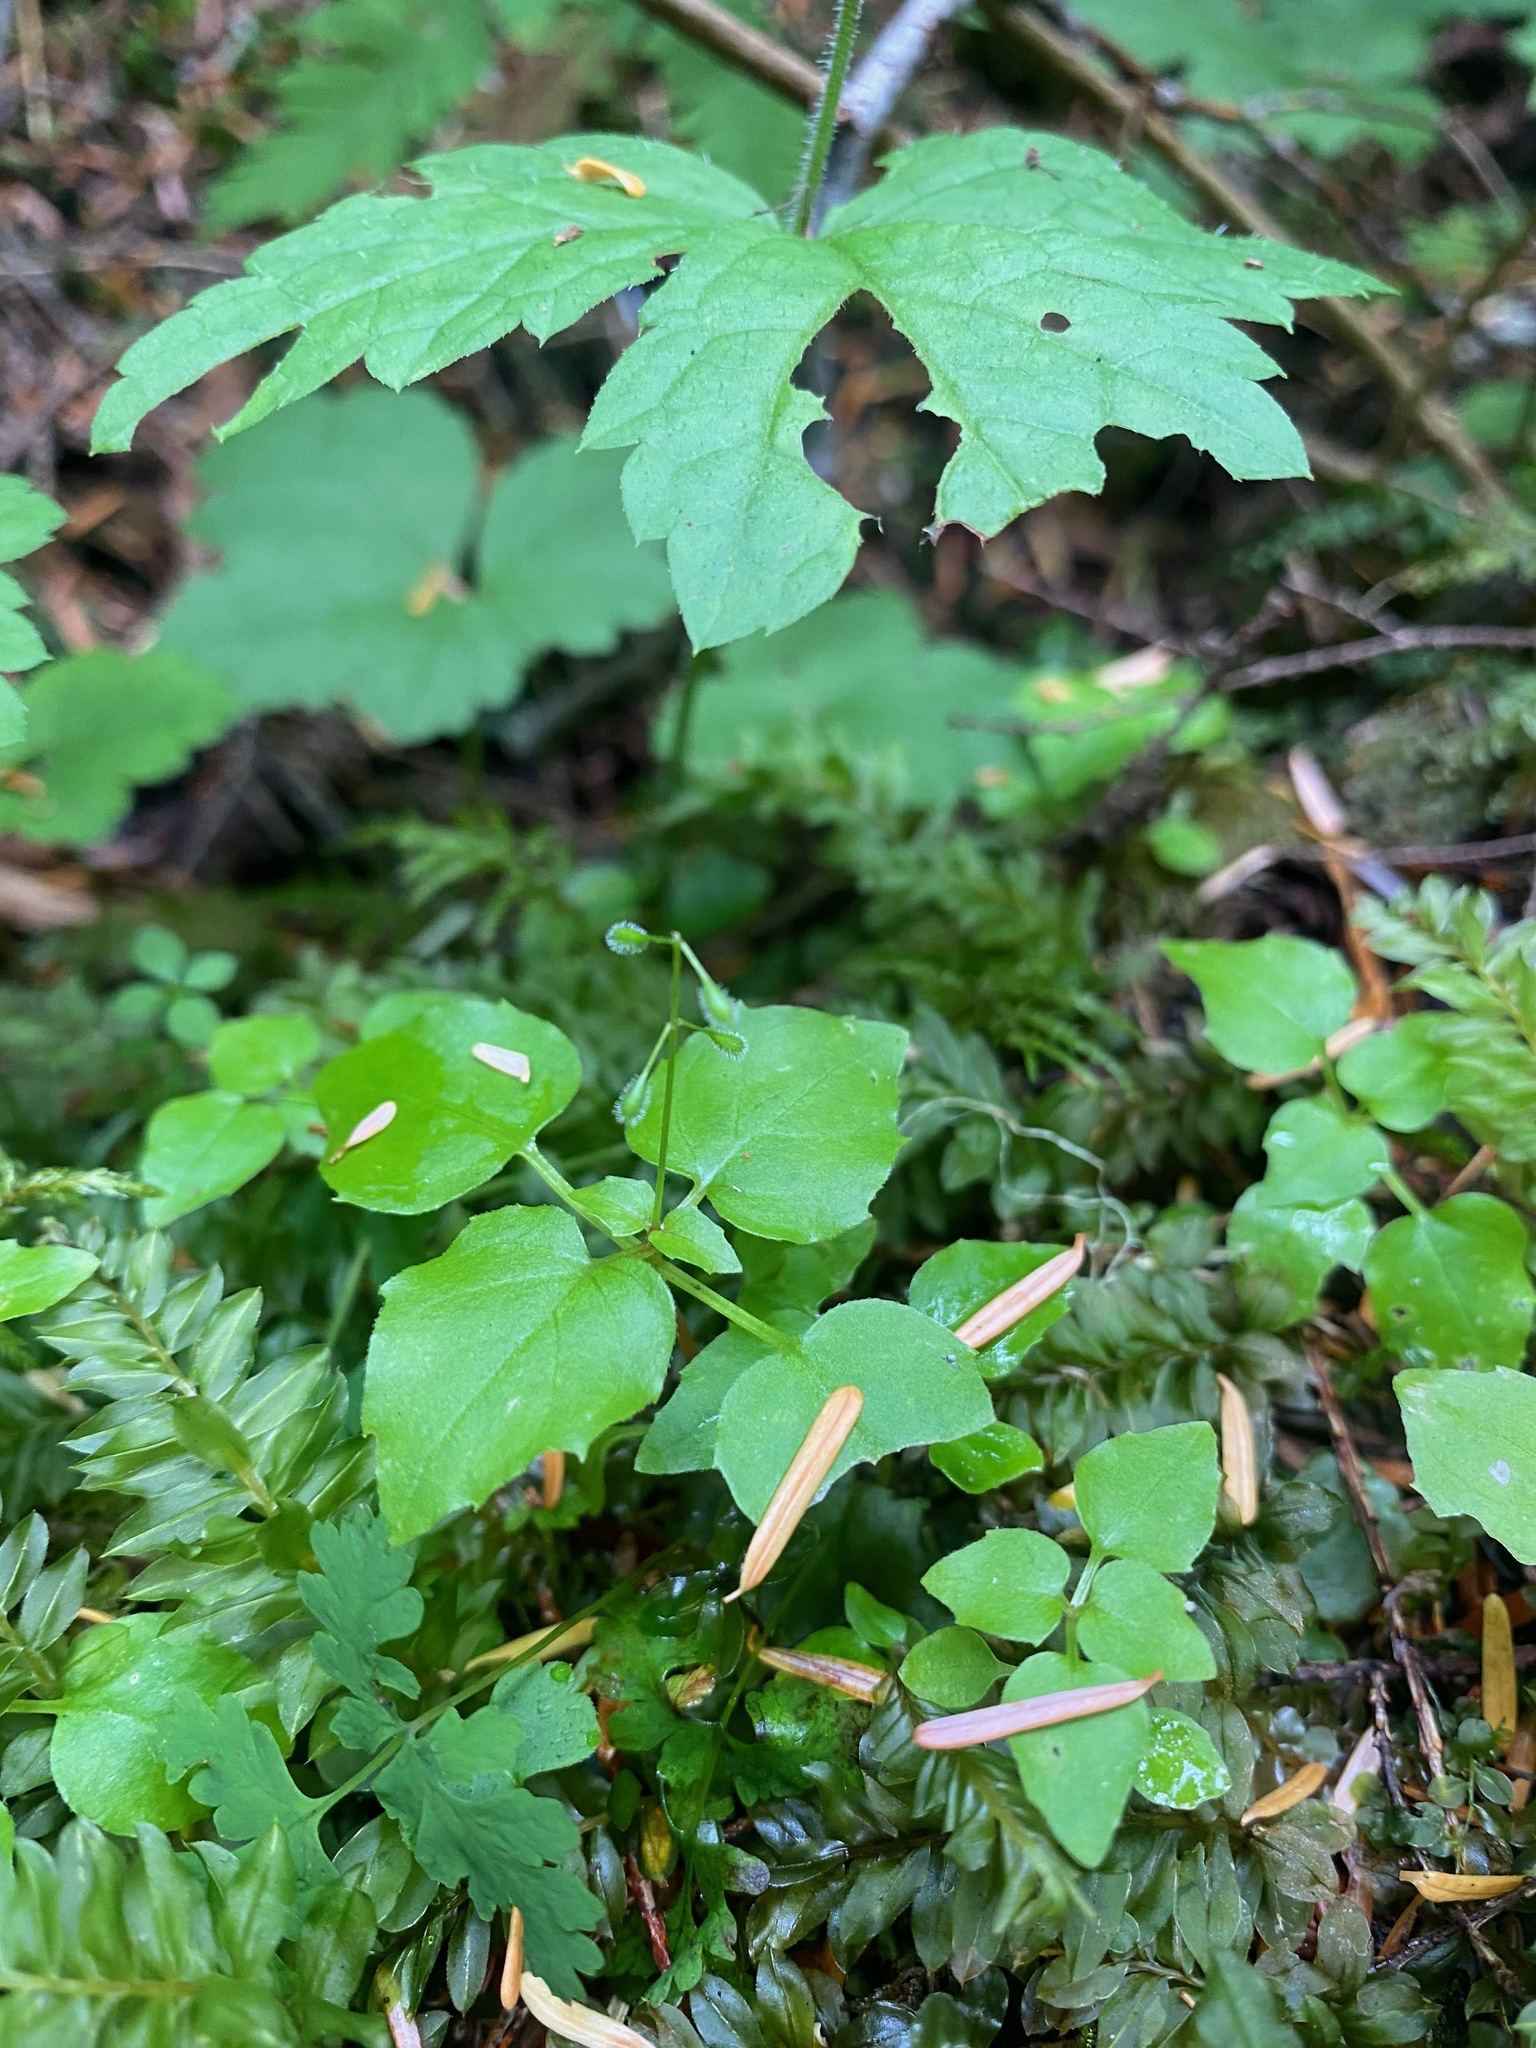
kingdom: Plantae
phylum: Tracheophyta
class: Magnoliopsida
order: Myrtales
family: Onagraceae
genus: Circaea
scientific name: Circaea alpina
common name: Alpine enchanter's-nightshade
